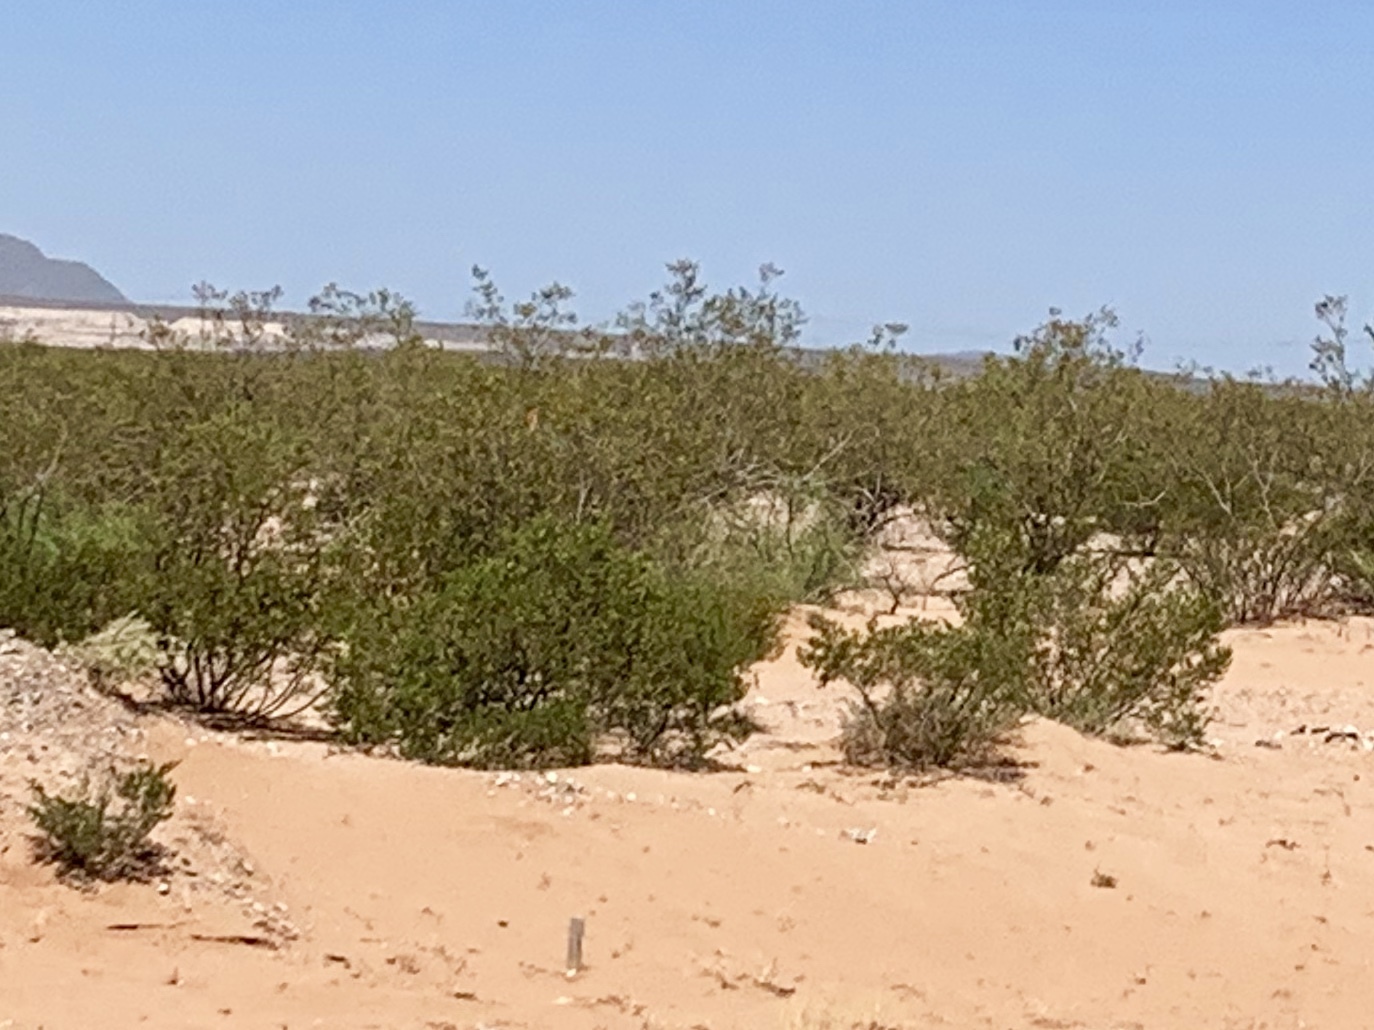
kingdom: Plantae
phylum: Tracheophyta
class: Magnoliopsida
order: Zygophyllales
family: Zygophyllaceae
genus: Larrea
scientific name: Larrea tridentata
